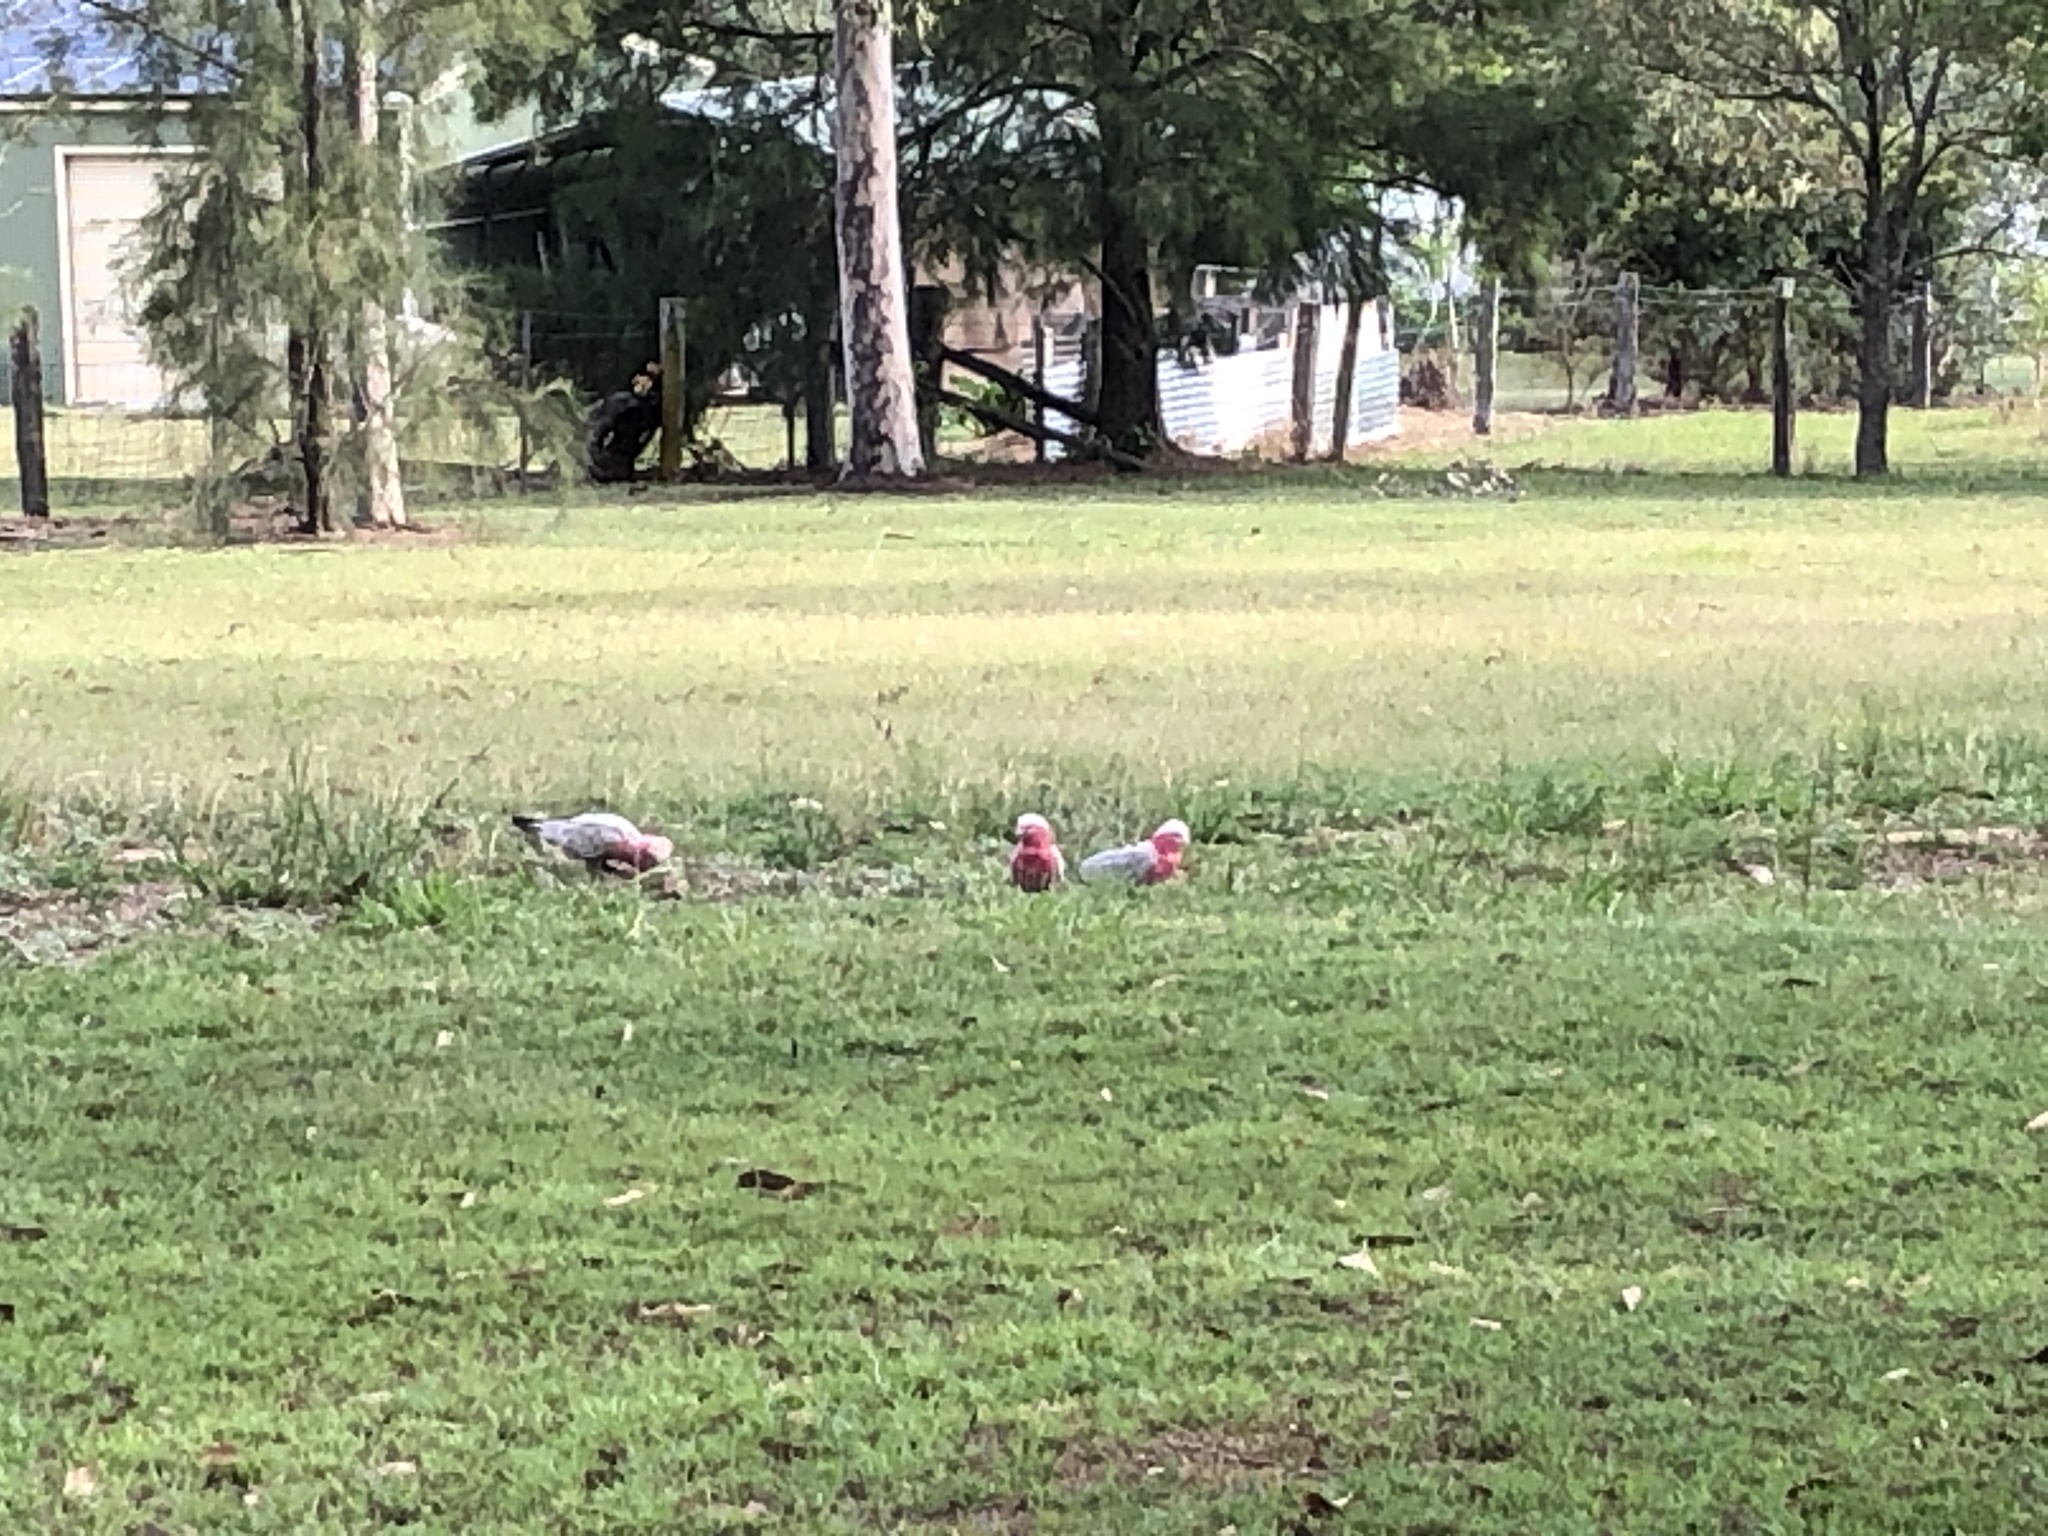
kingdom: Animalia
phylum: Chordata
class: Aves
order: Psittaciformes
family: Psittacidae
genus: Eolophus
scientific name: Eolophus roseicapilla
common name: Galah
